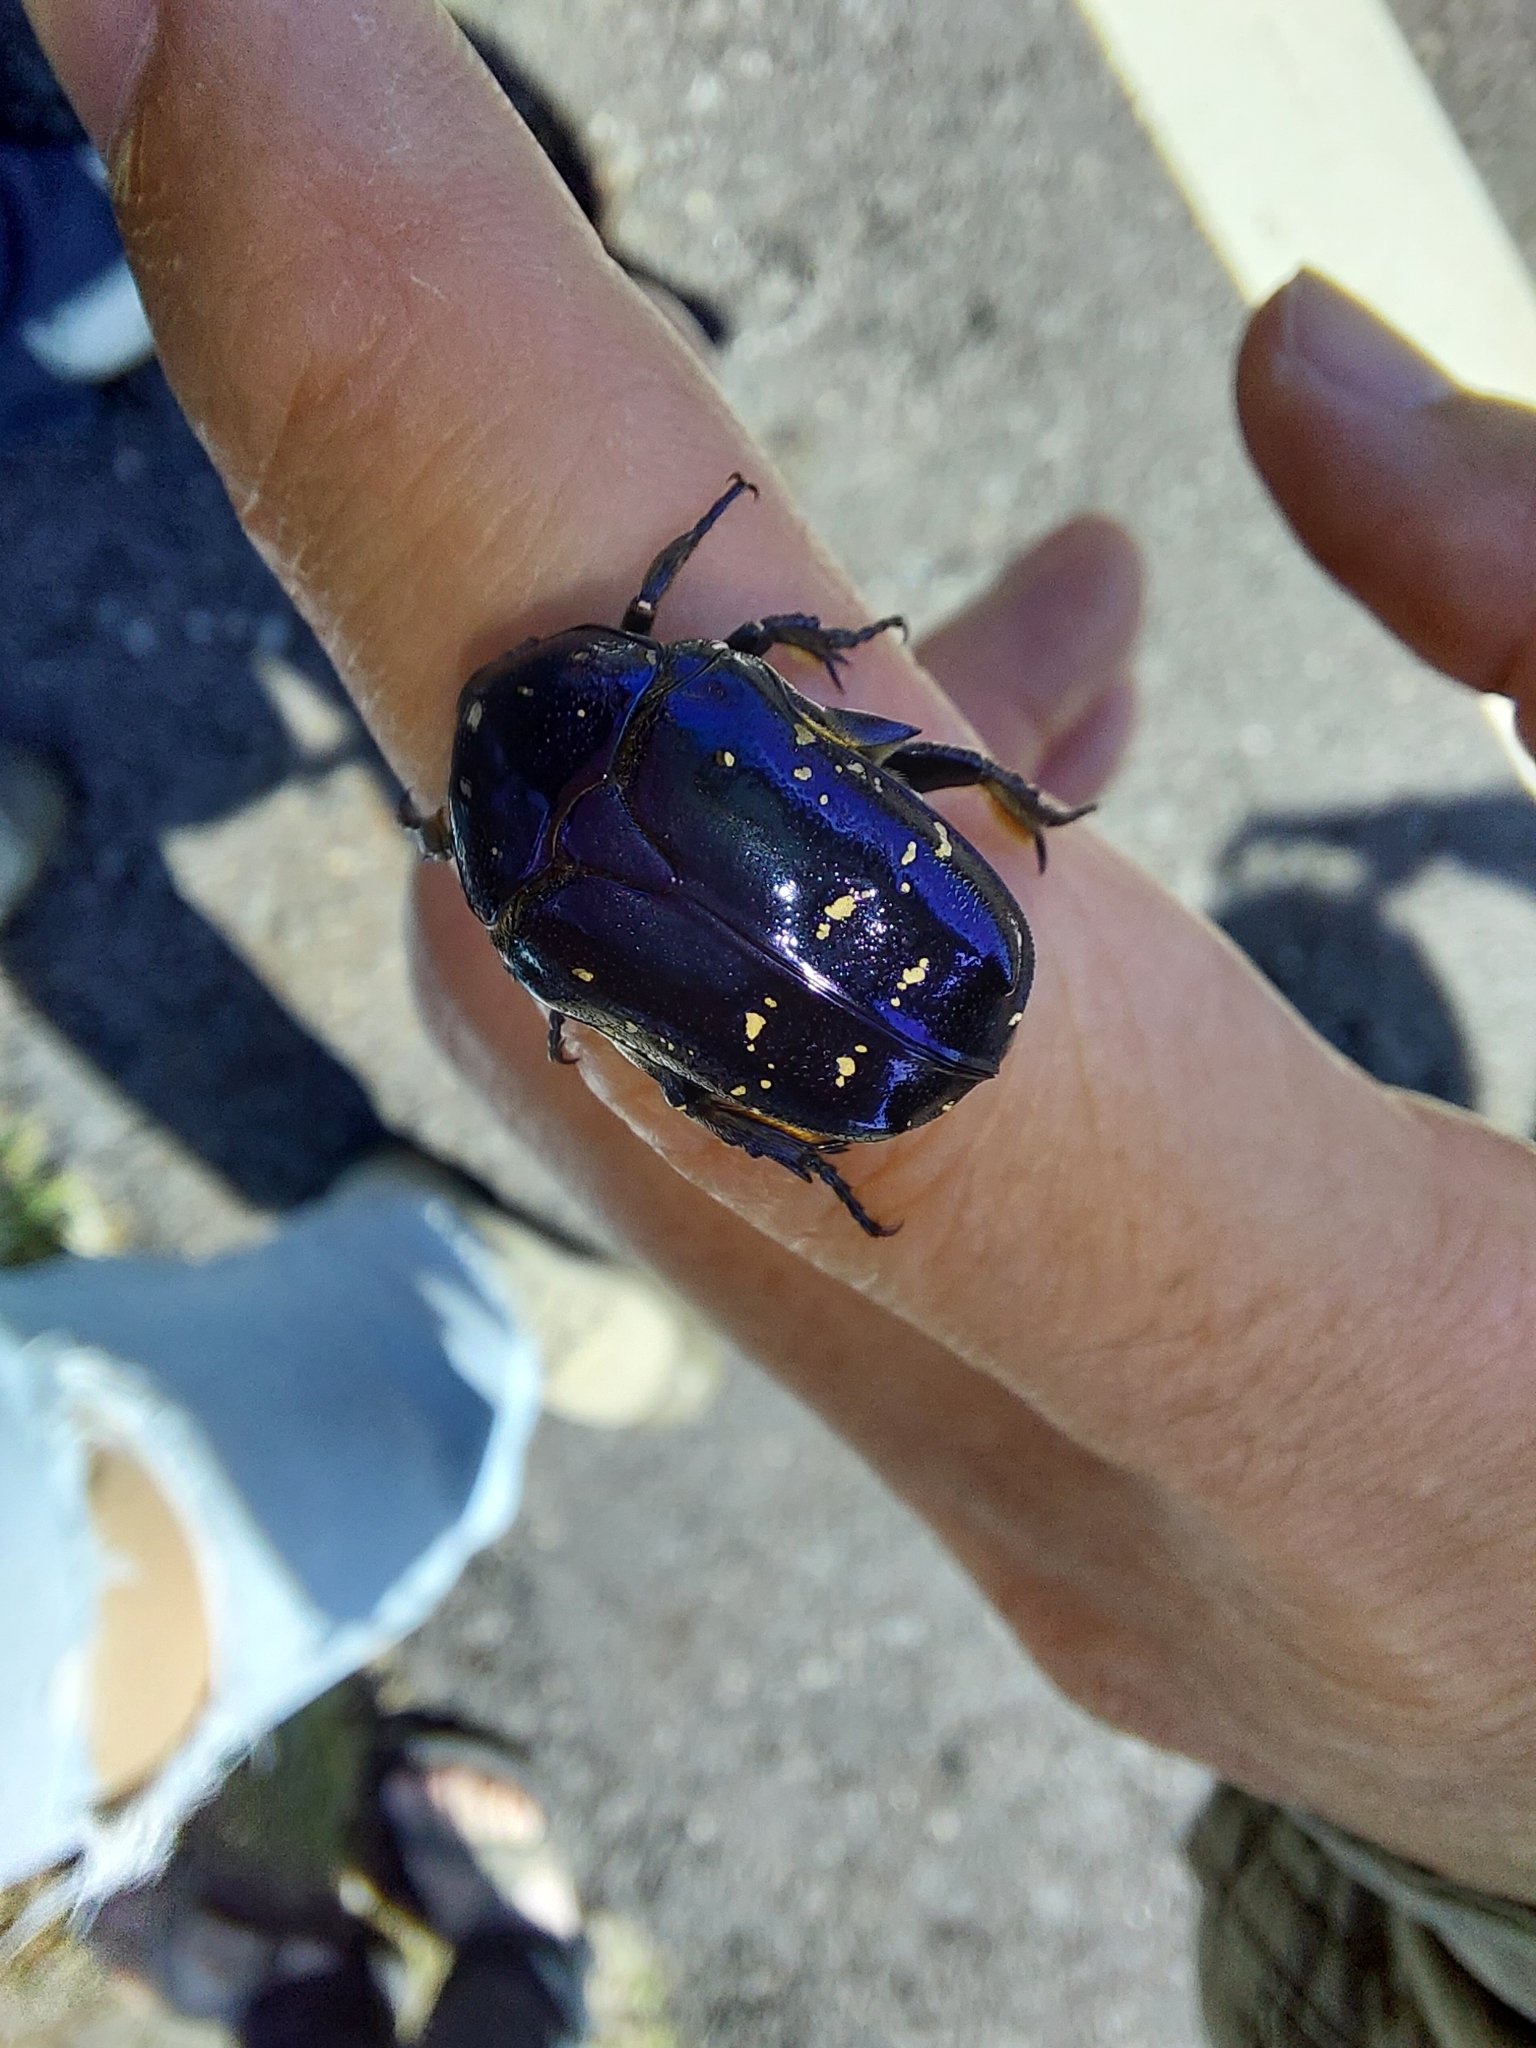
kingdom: Animalia
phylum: Arthropoda
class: Insecta
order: Coleoptera
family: Scarabaeidae
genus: Protaetia
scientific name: Protaetia inquinata
